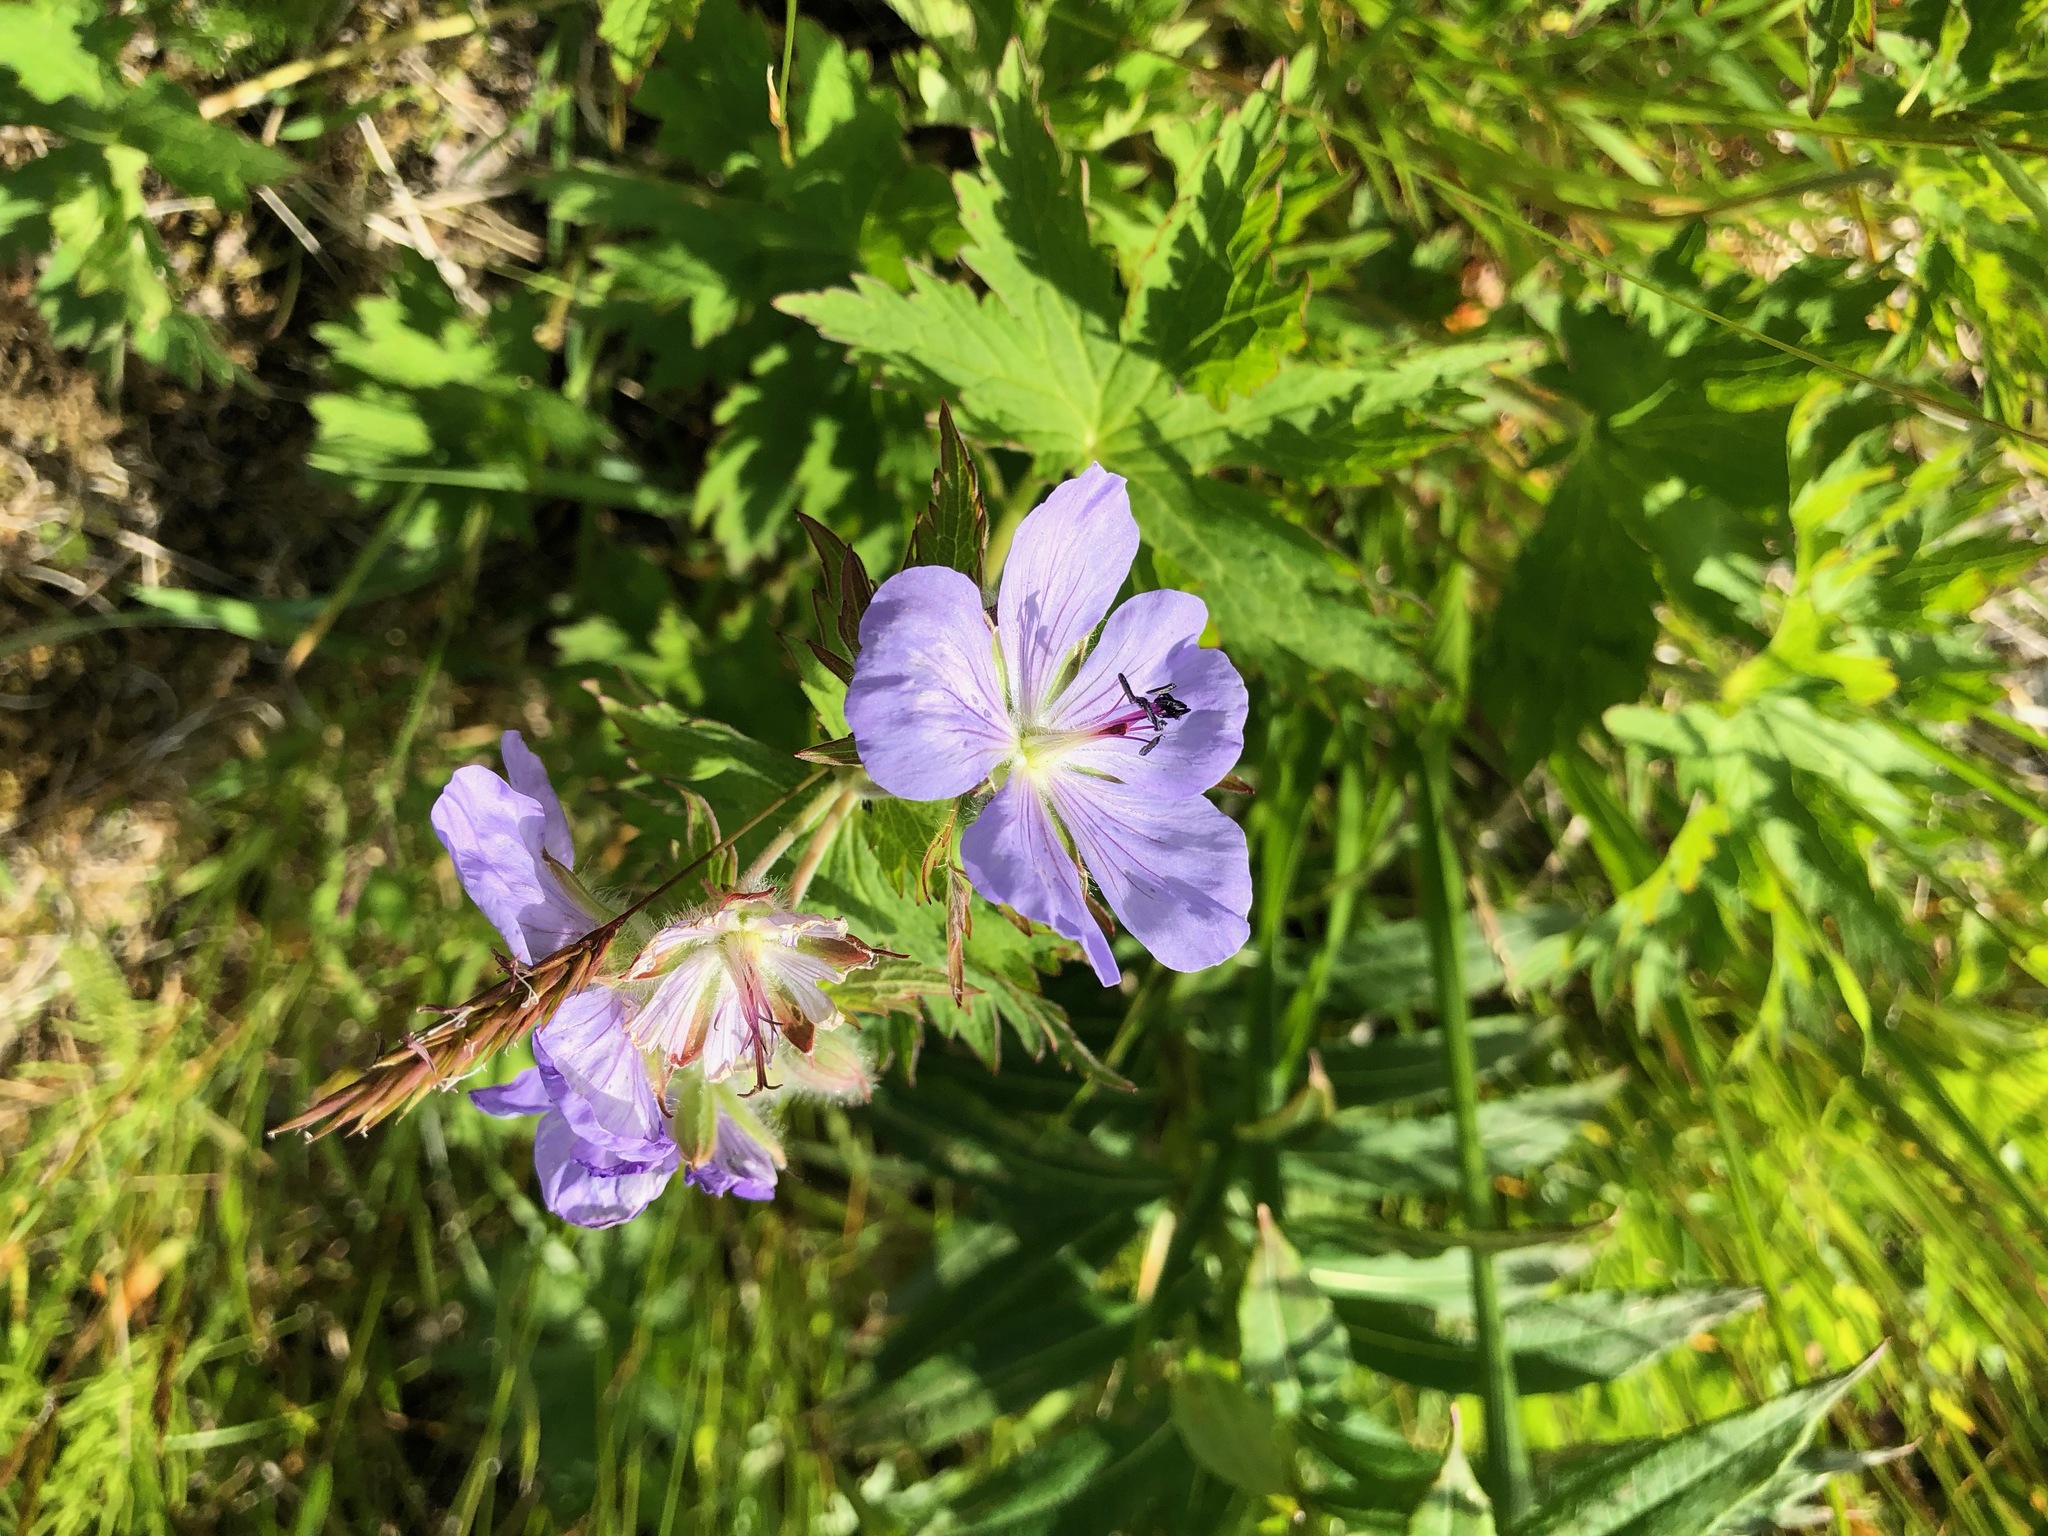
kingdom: Plantae
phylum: Tracheophyta
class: Magnoliopsida
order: Geraniales
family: Geraniaceae
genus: Geranium
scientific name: Geranium erianthum
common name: Northern crane's-bill
